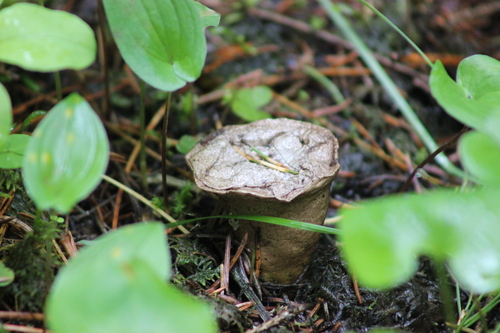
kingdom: Fungi
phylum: Basidiomycota
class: Agaricomycetes
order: Agaricales
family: Lycoperdaceae
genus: Lycoperdon
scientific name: Lycoperdon perlatum
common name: Common puffball
